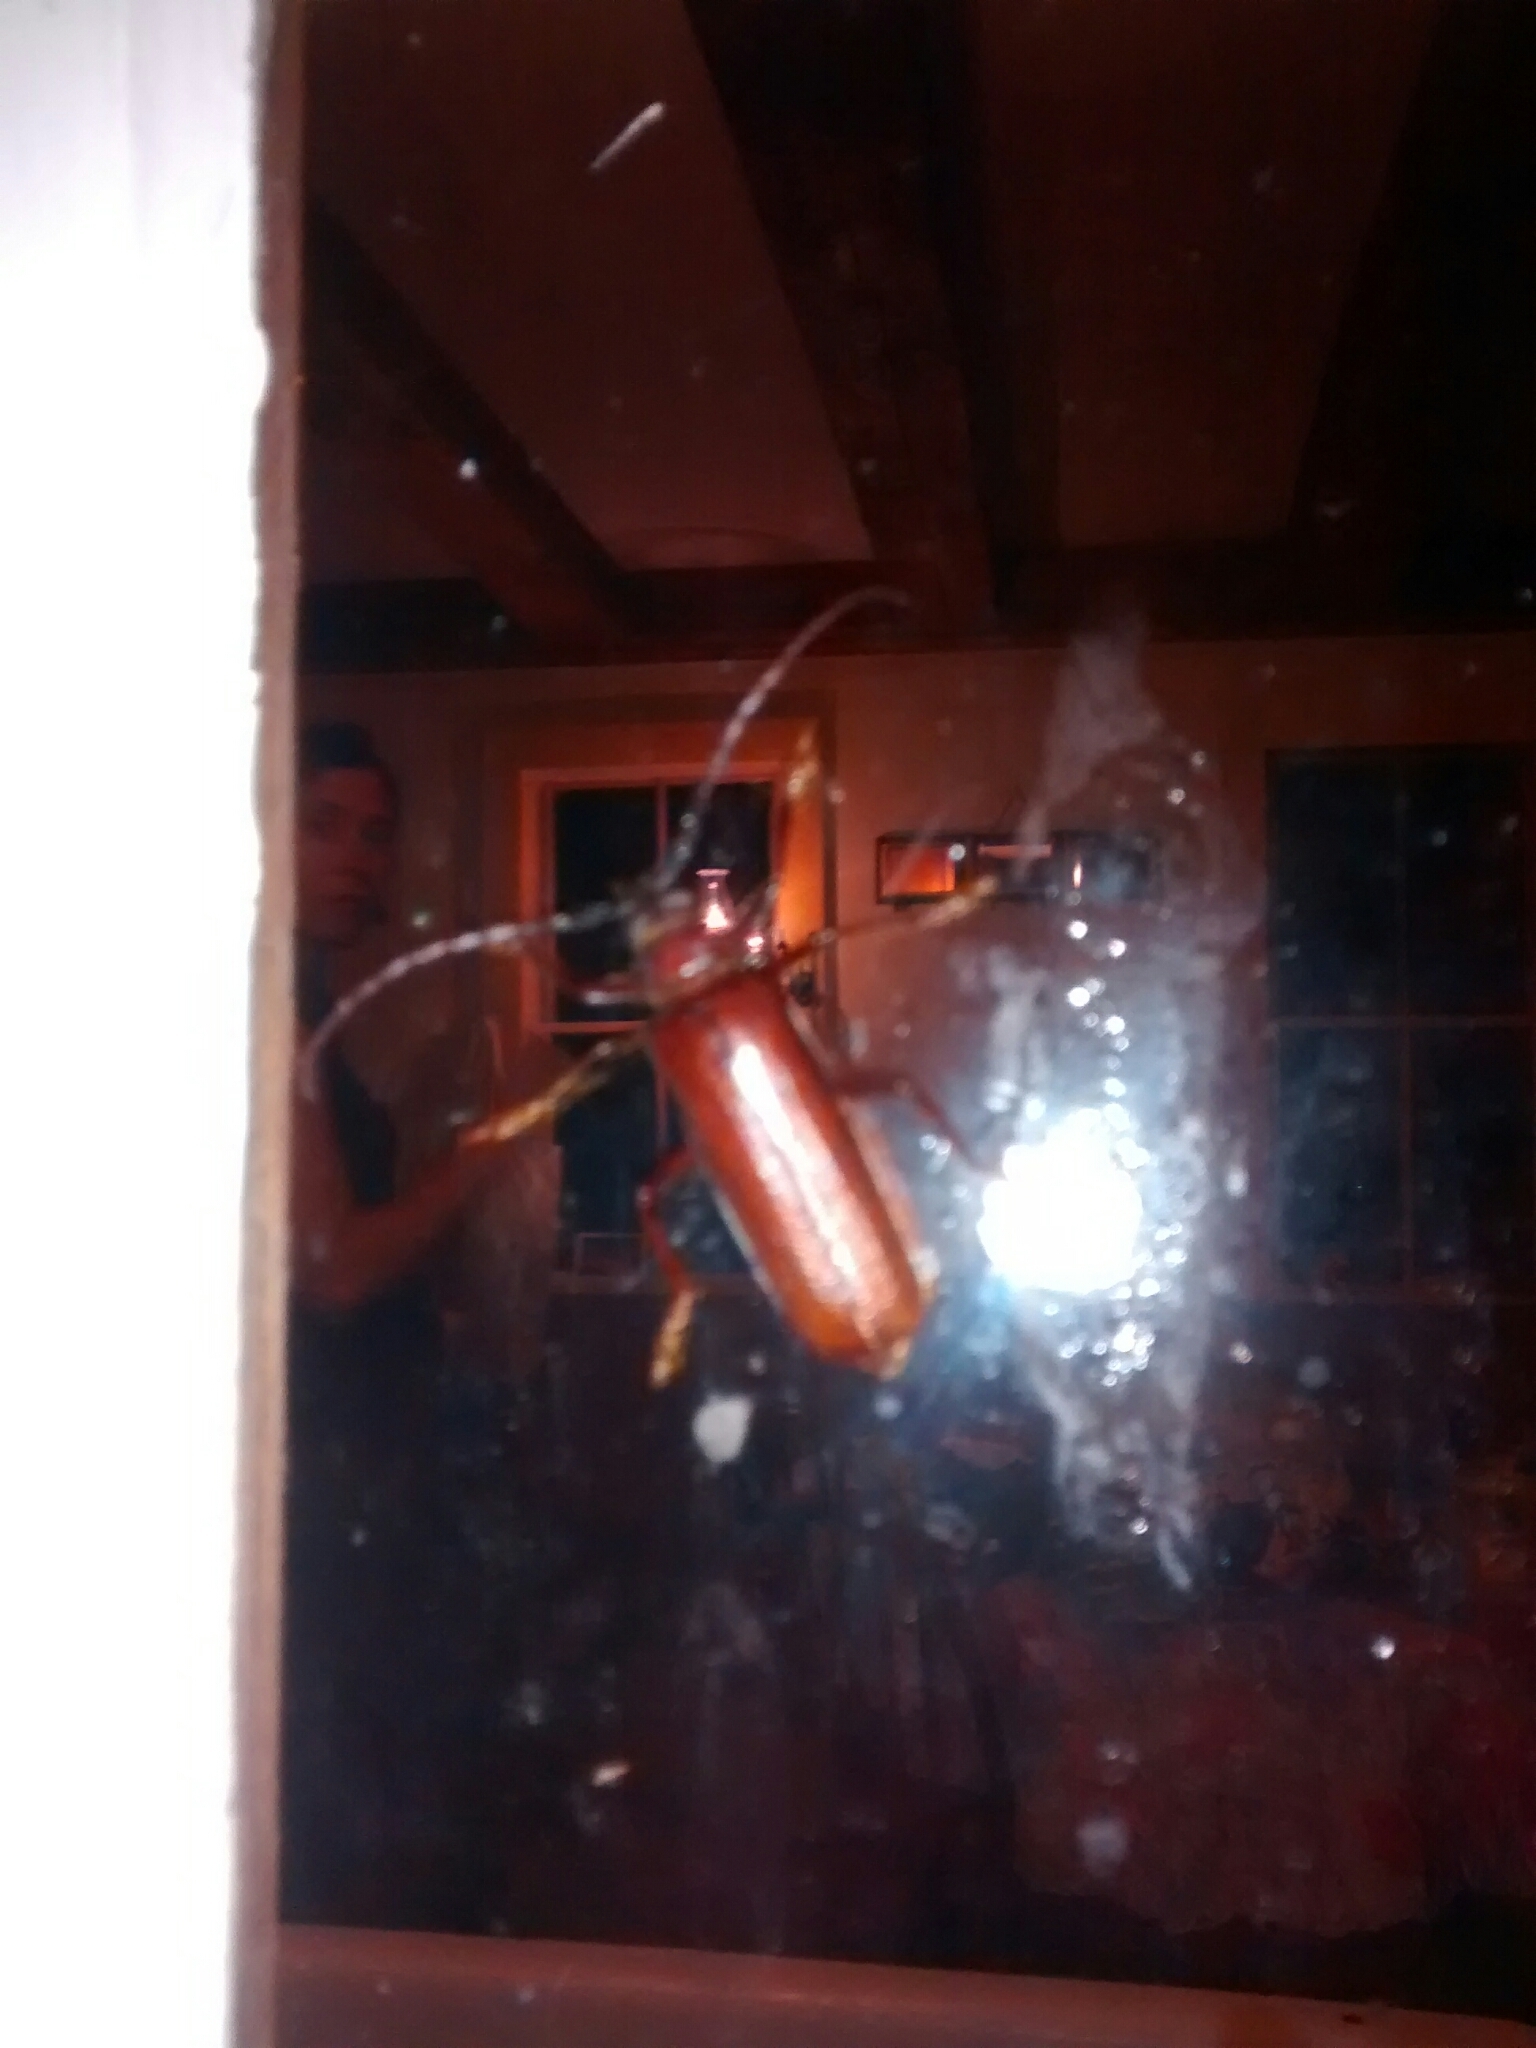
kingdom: Animalia
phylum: Arthropoda
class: Insecta
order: Coleoptera
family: Cerambycidae
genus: Orthosoma
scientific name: Orthosoma brunneum
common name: Brown prionid beetle
